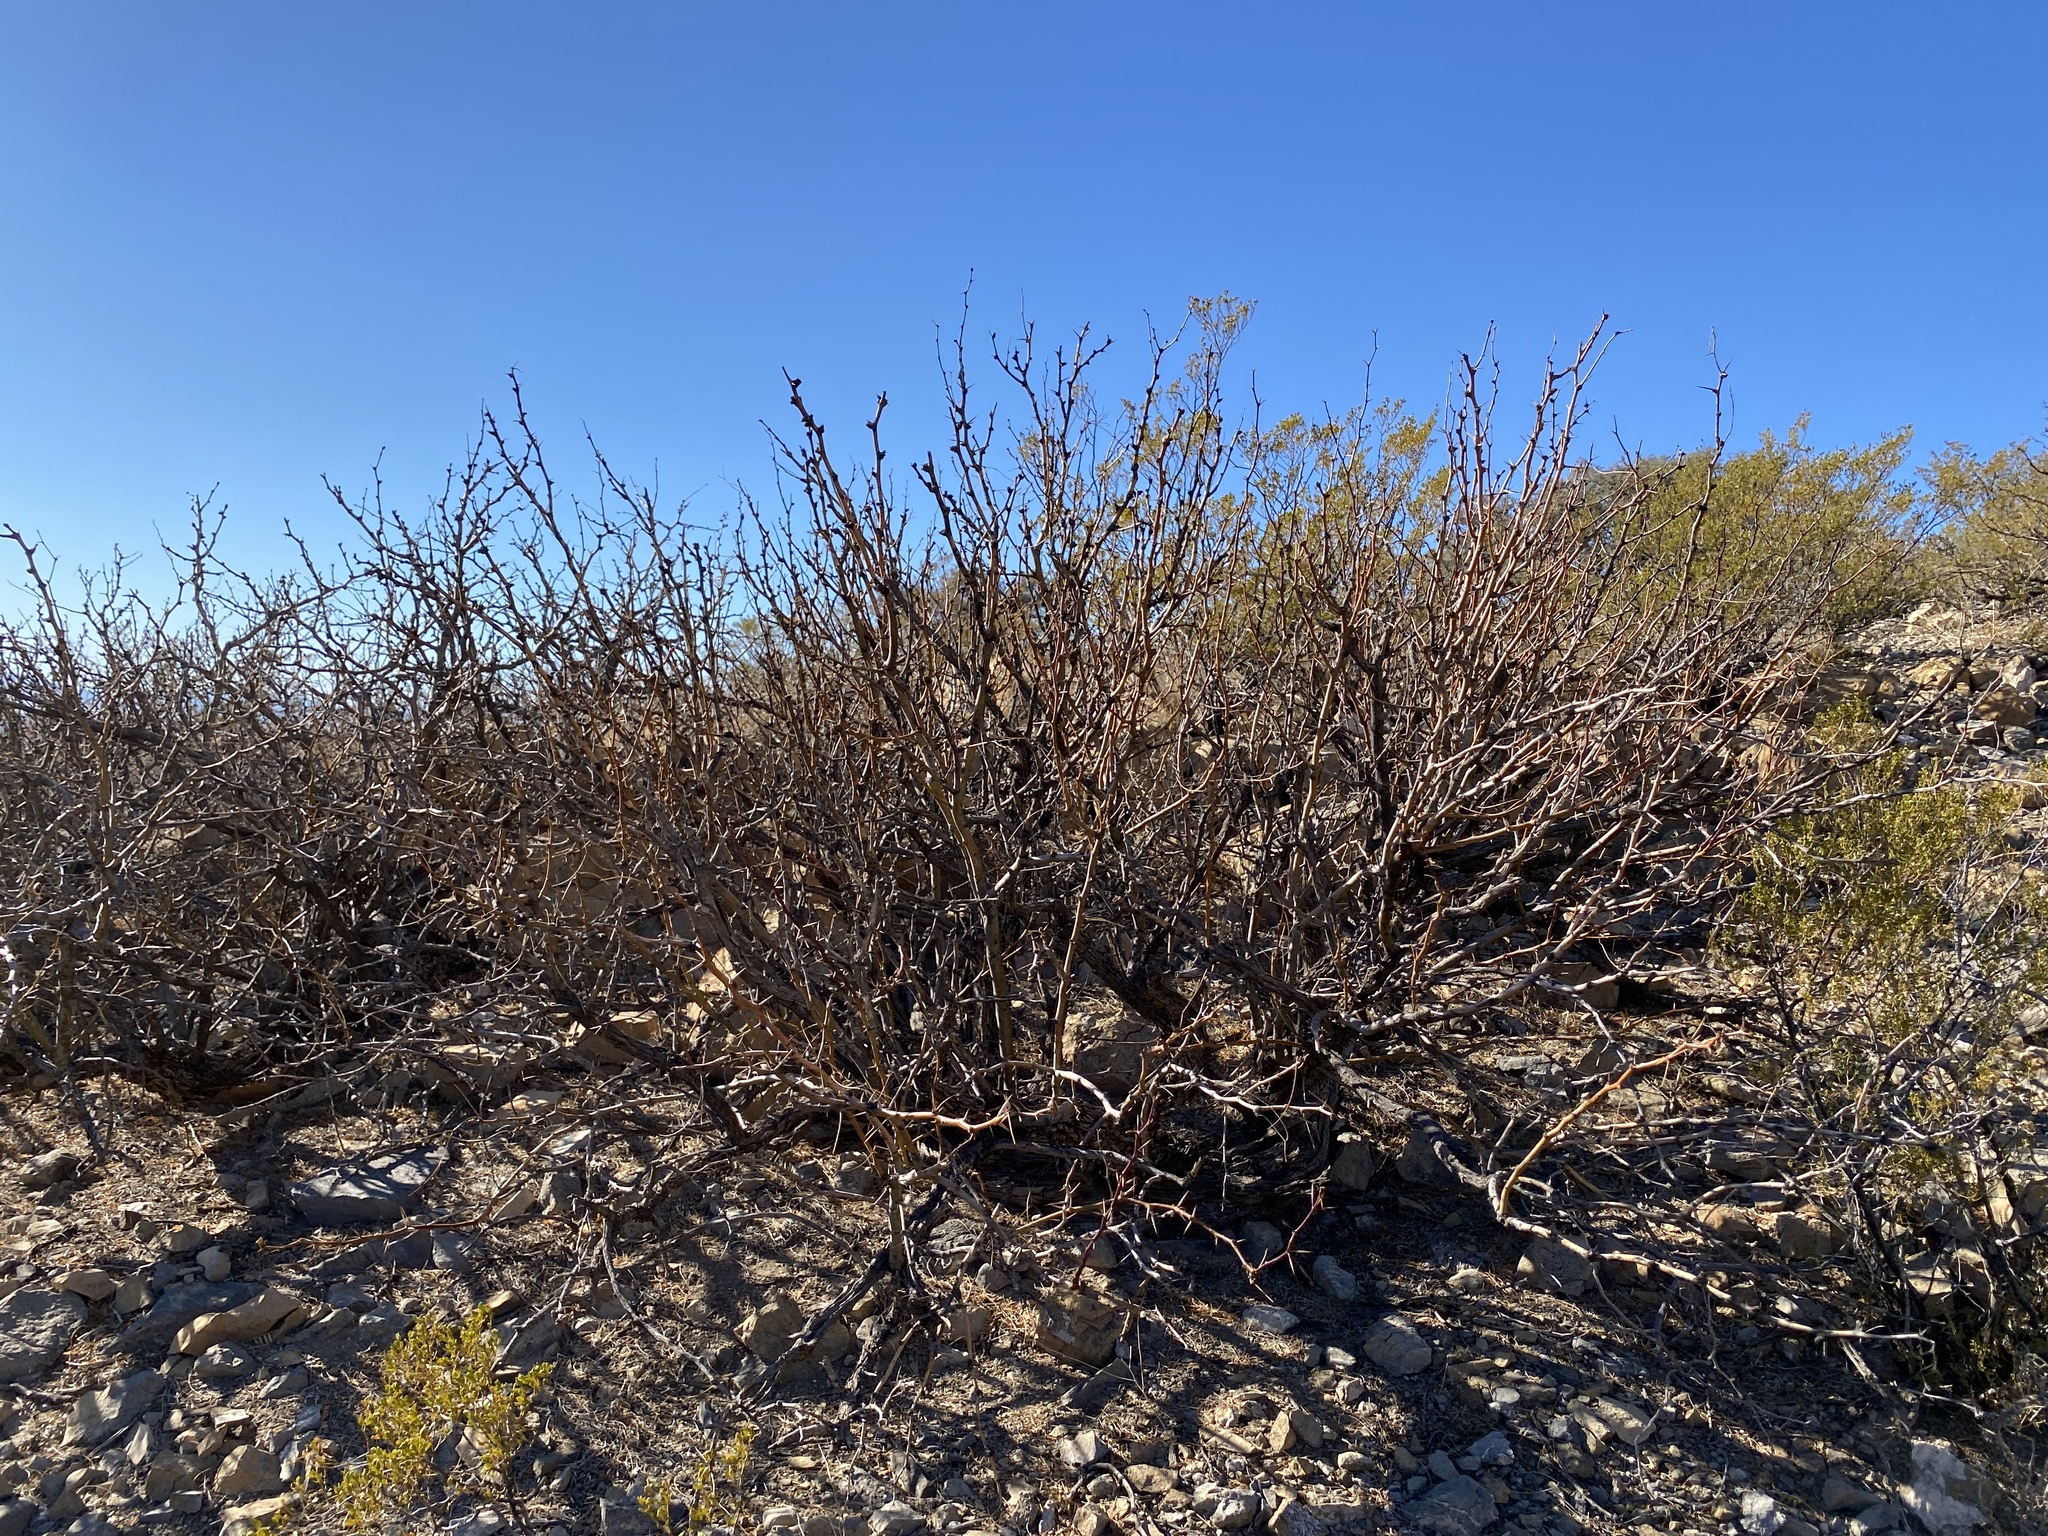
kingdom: Plantae
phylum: Tracheophyta
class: Magnoliopsida
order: Fabales
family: Fabaceae
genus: Prosopis
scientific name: Prosopis glandulosa
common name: Honey mesquite
